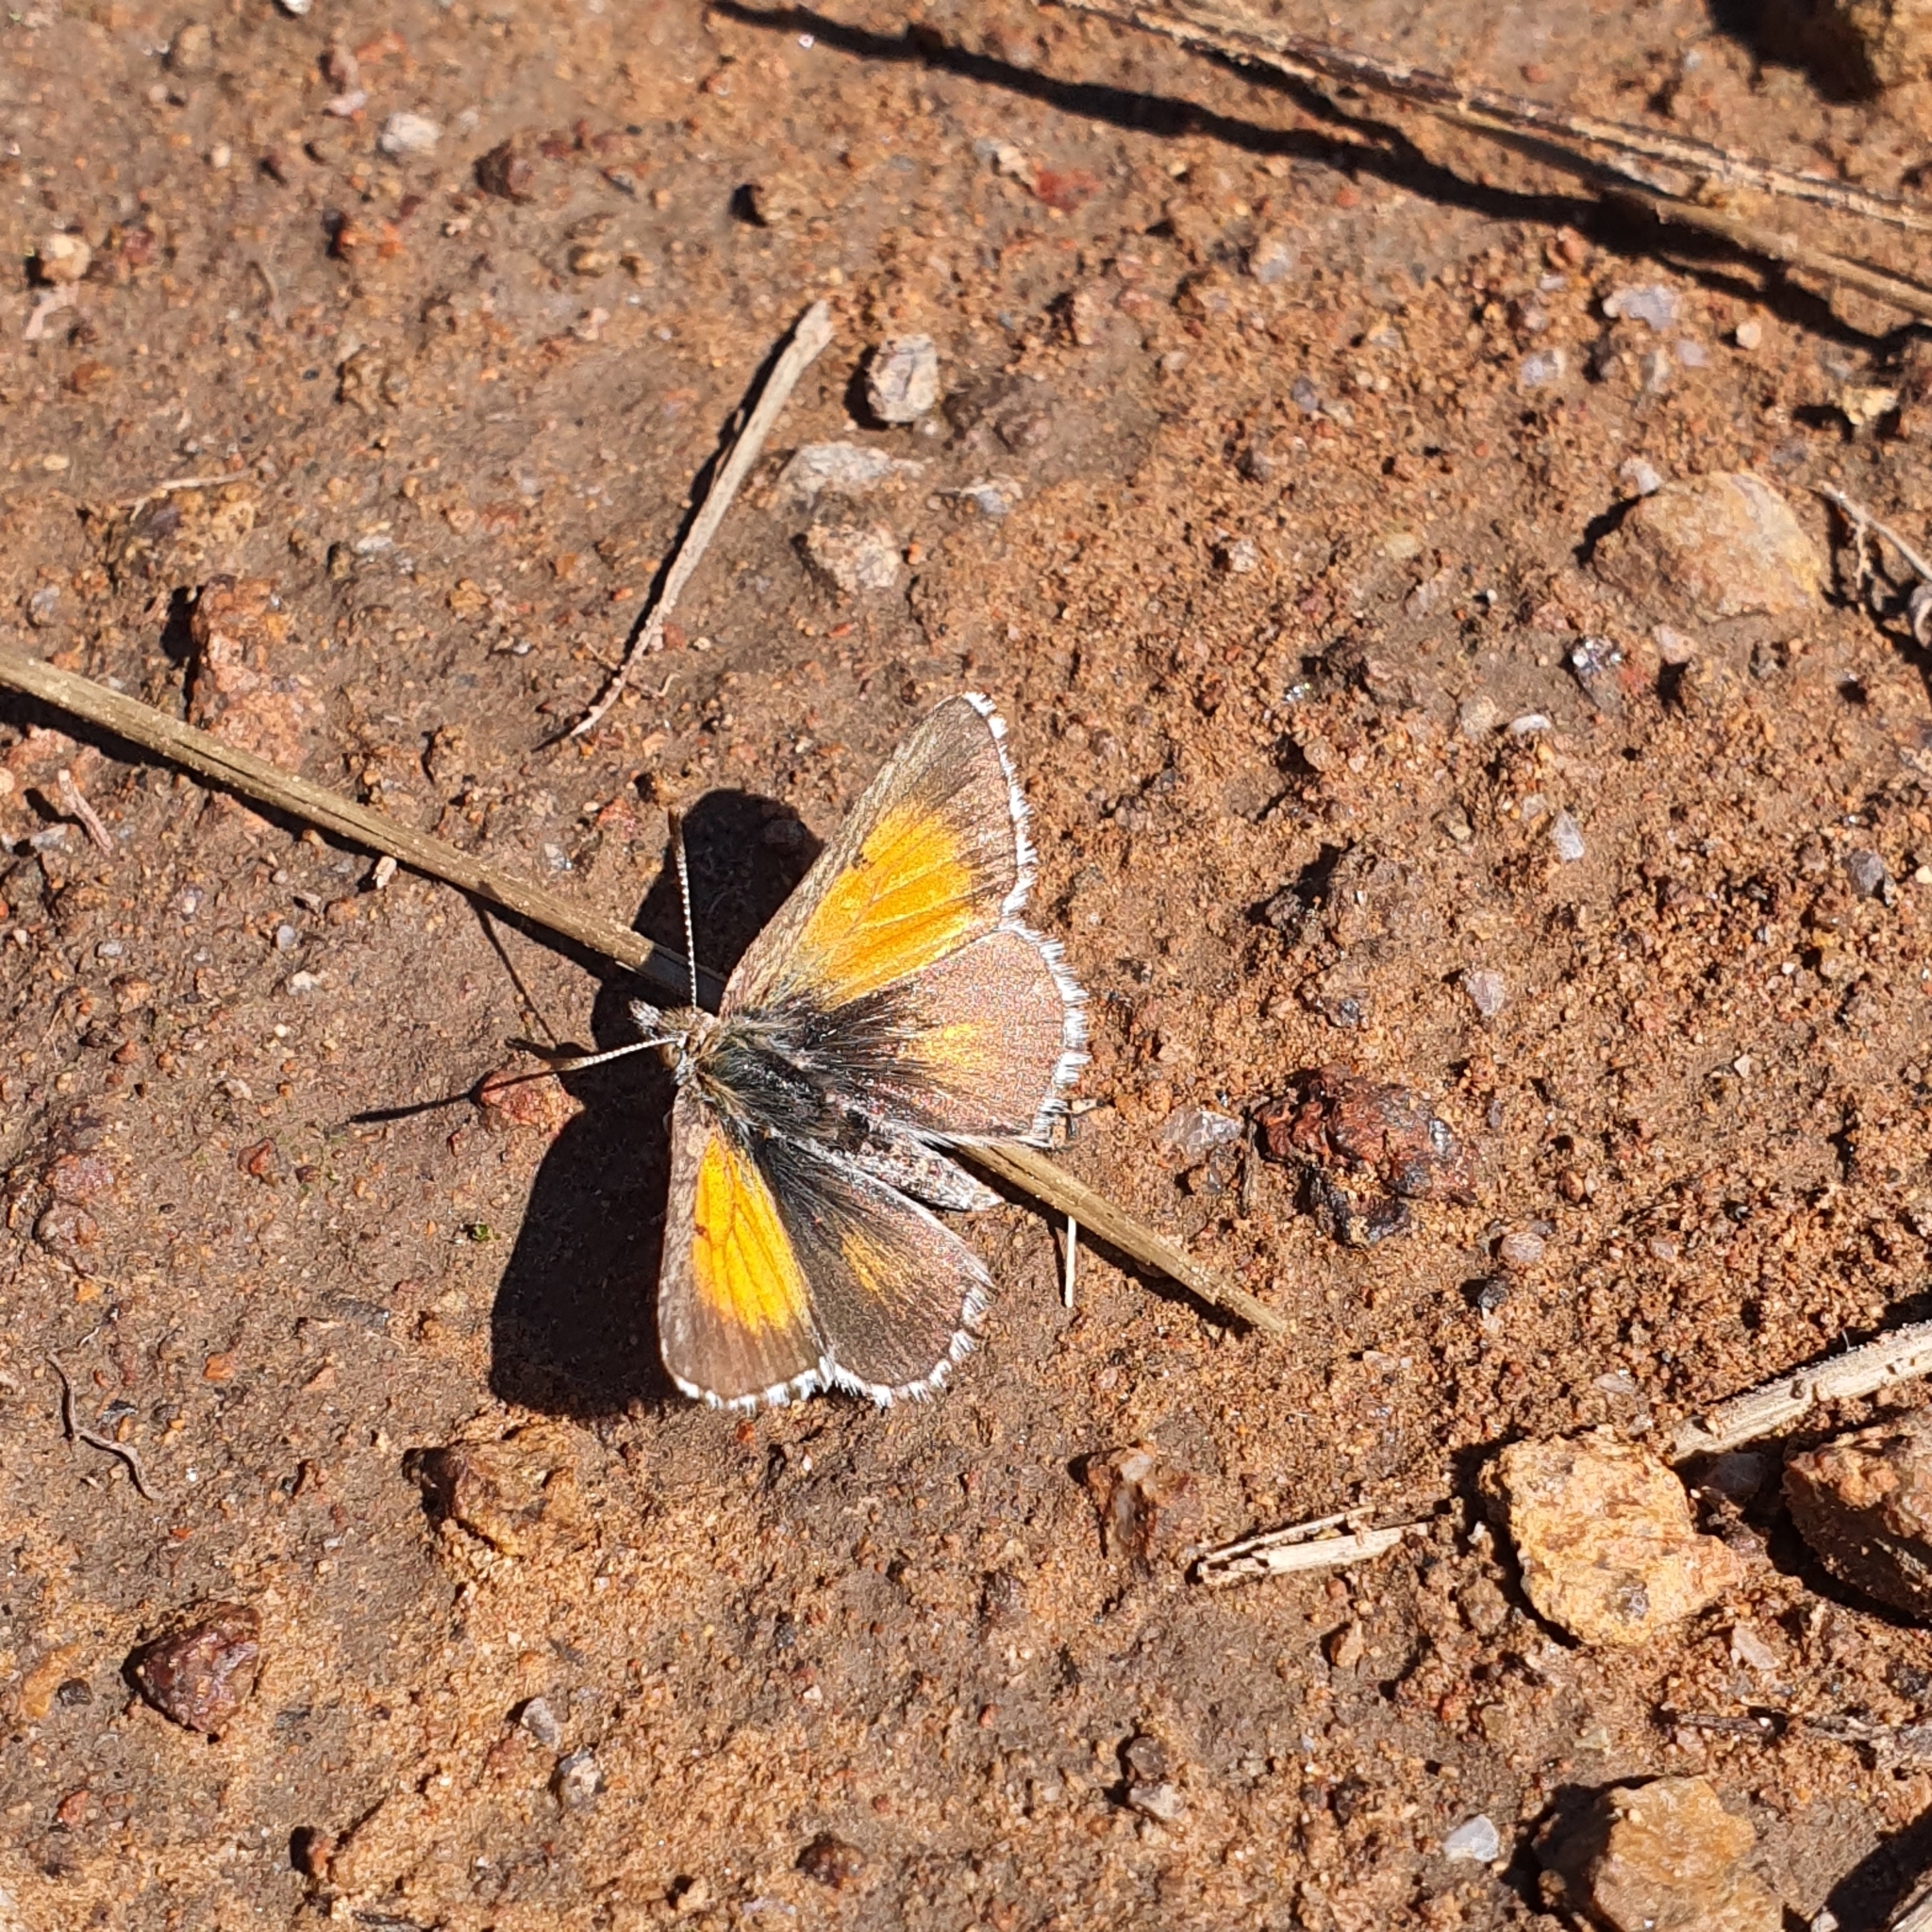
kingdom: Animalia
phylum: Arthropoda
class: Insecta
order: Lepidoptera
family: Lycaenidae
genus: Lucia
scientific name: Lucia limbaria
